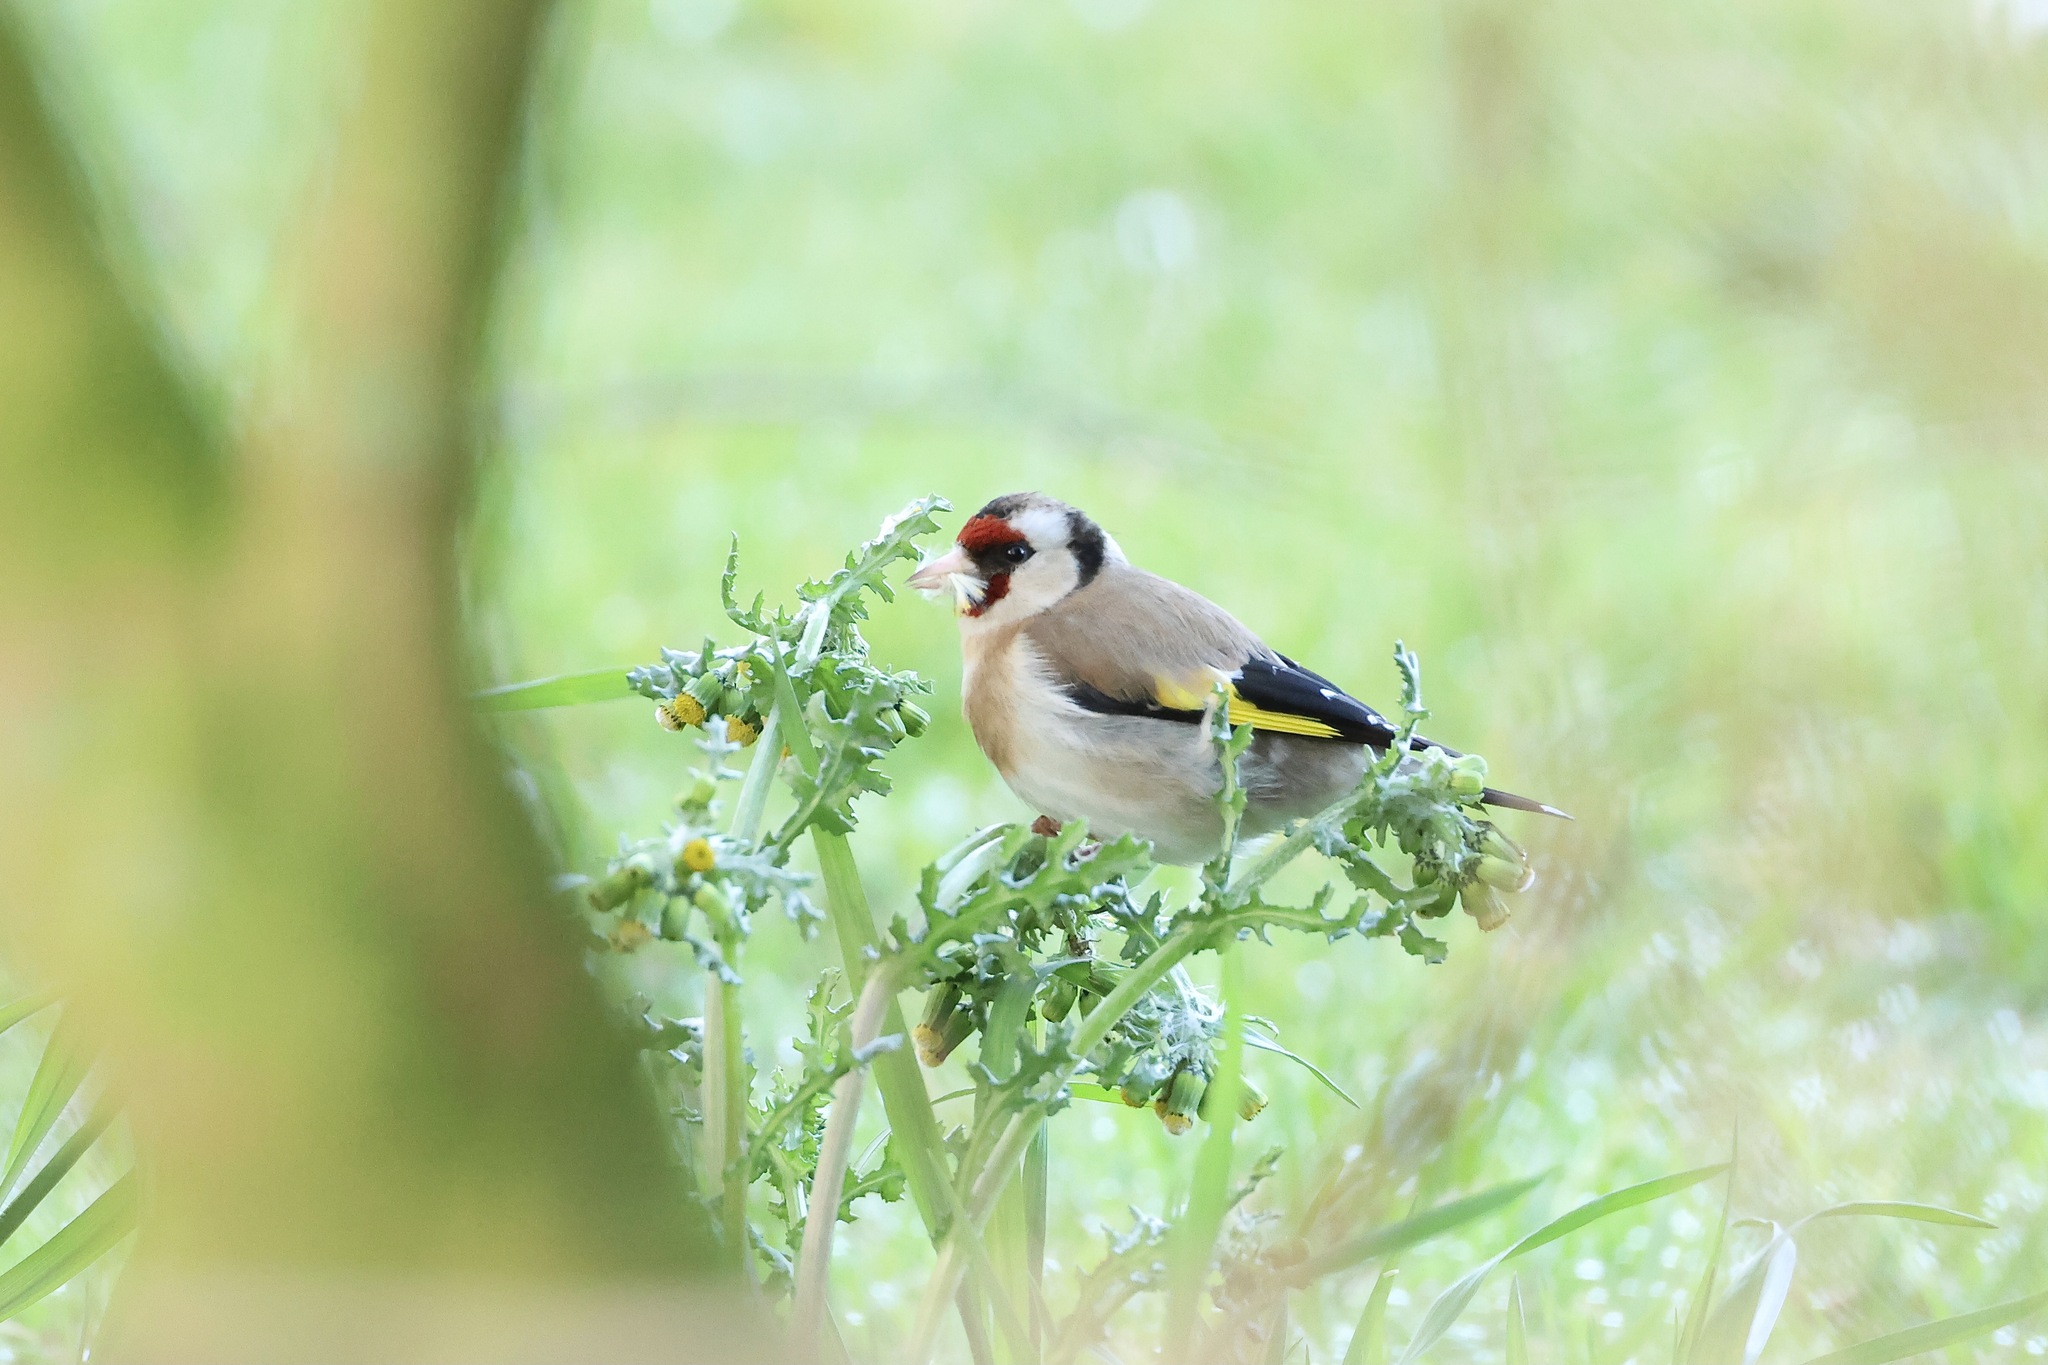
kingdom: Animalia
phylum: Chordata
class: Aves
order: Passeriformes
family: Fringillidae
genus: Carduelis
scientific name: Carduelis carduelis
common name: European goldfinch
